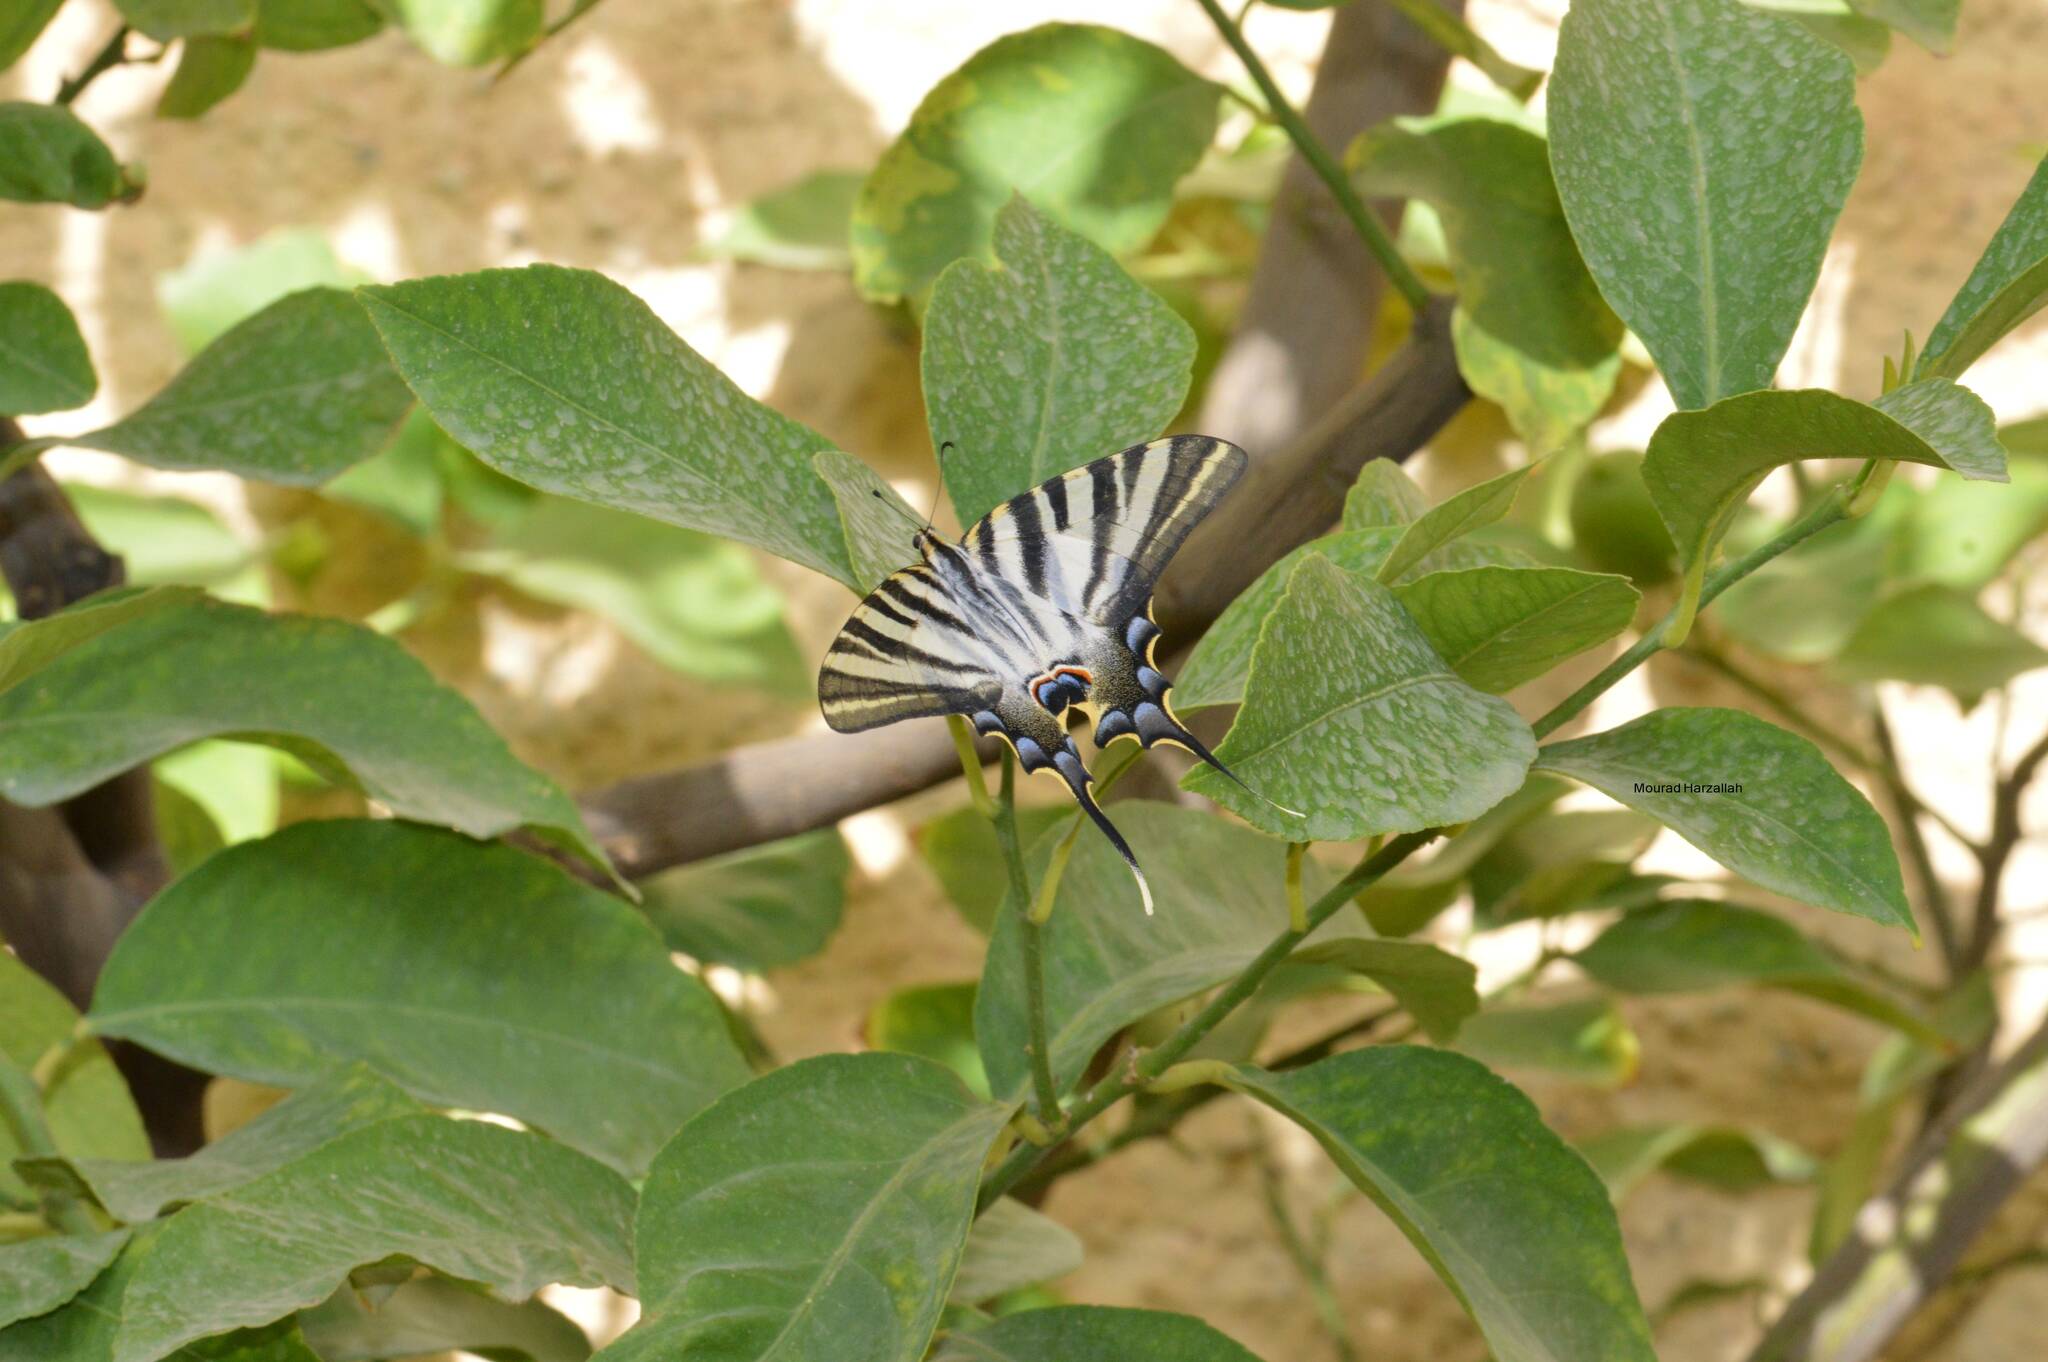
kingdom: Animalia
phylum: Arthropoda
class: Insecta
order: Lepidoptera
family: Papilionidae
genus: Iphiclides
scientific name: Iphiclides feisthamelii
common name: Iberian scarce swallowtail
